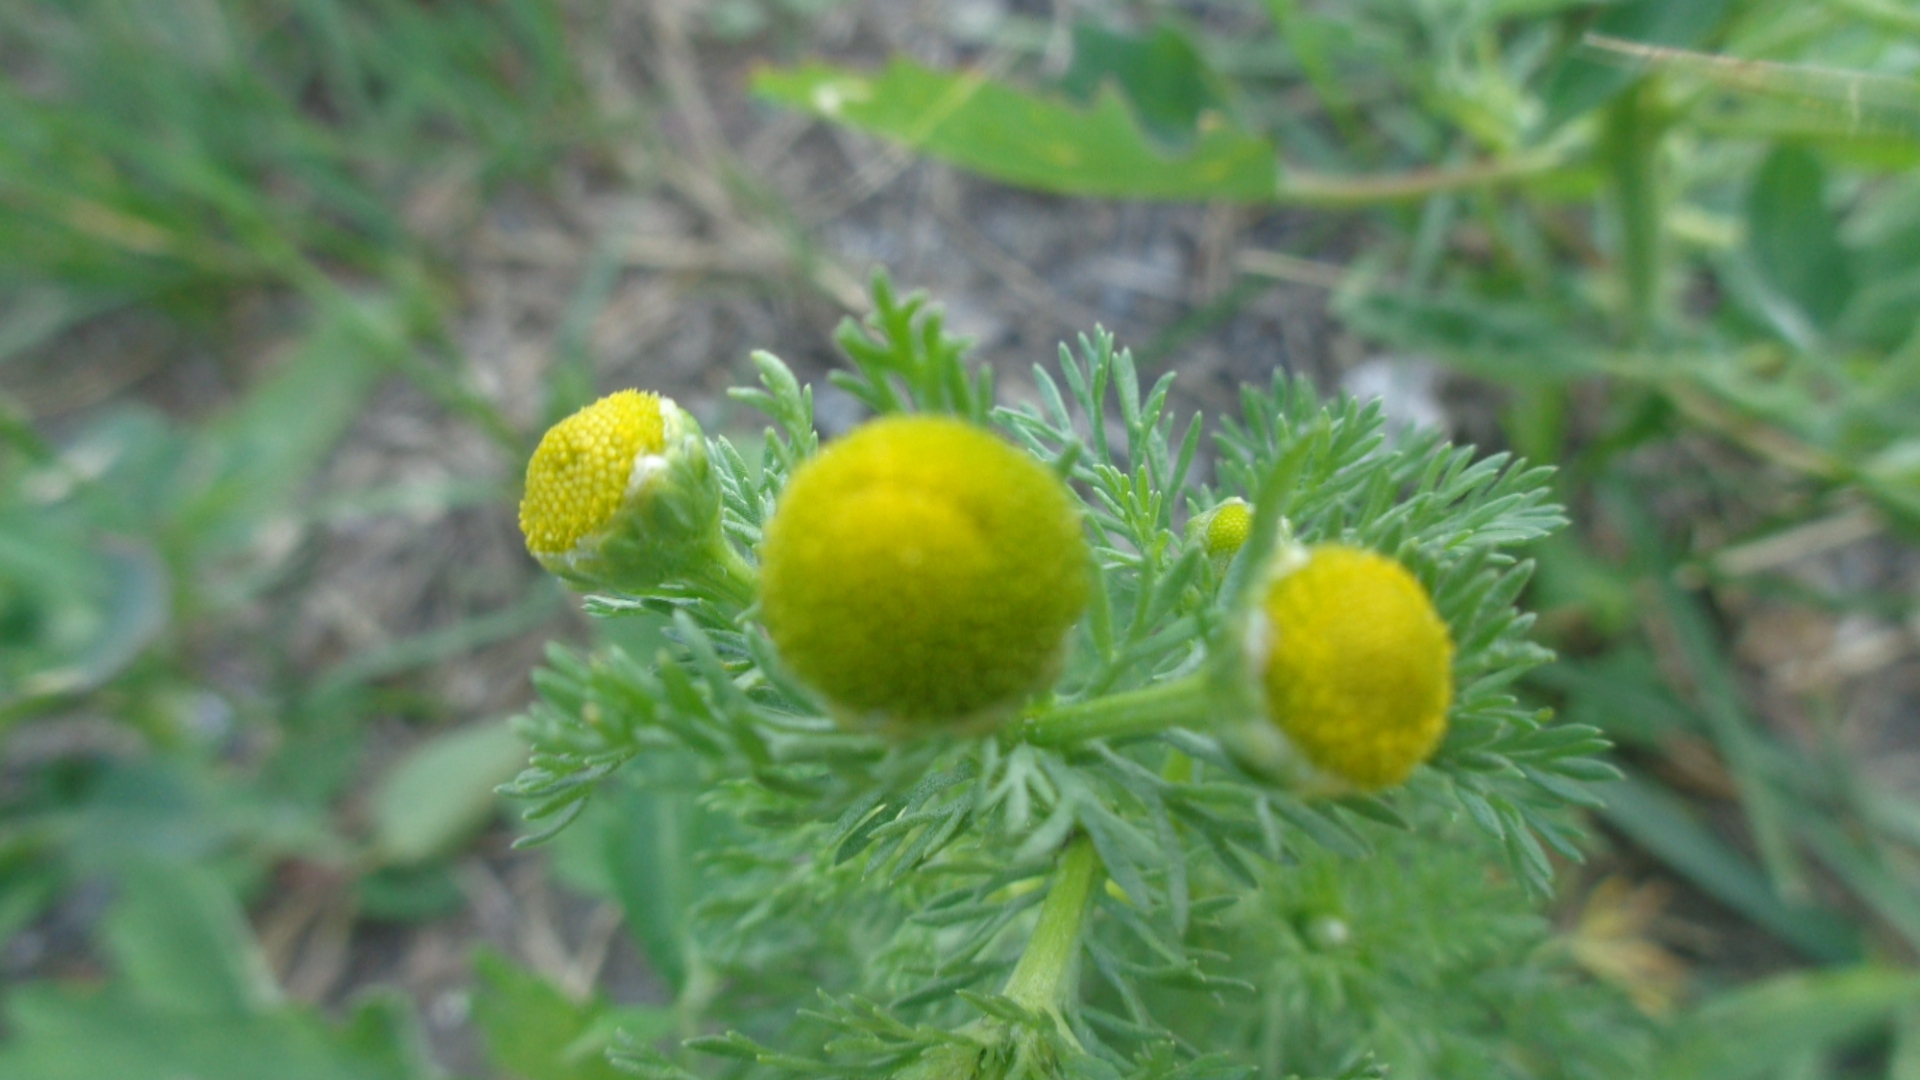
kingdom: Plantae
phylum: Tracheophyta
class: Magnoliopsida
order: Asterales
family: Asteraceae
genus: Matricaria
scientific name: Matricaria discoidea
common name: Disc mayweed
